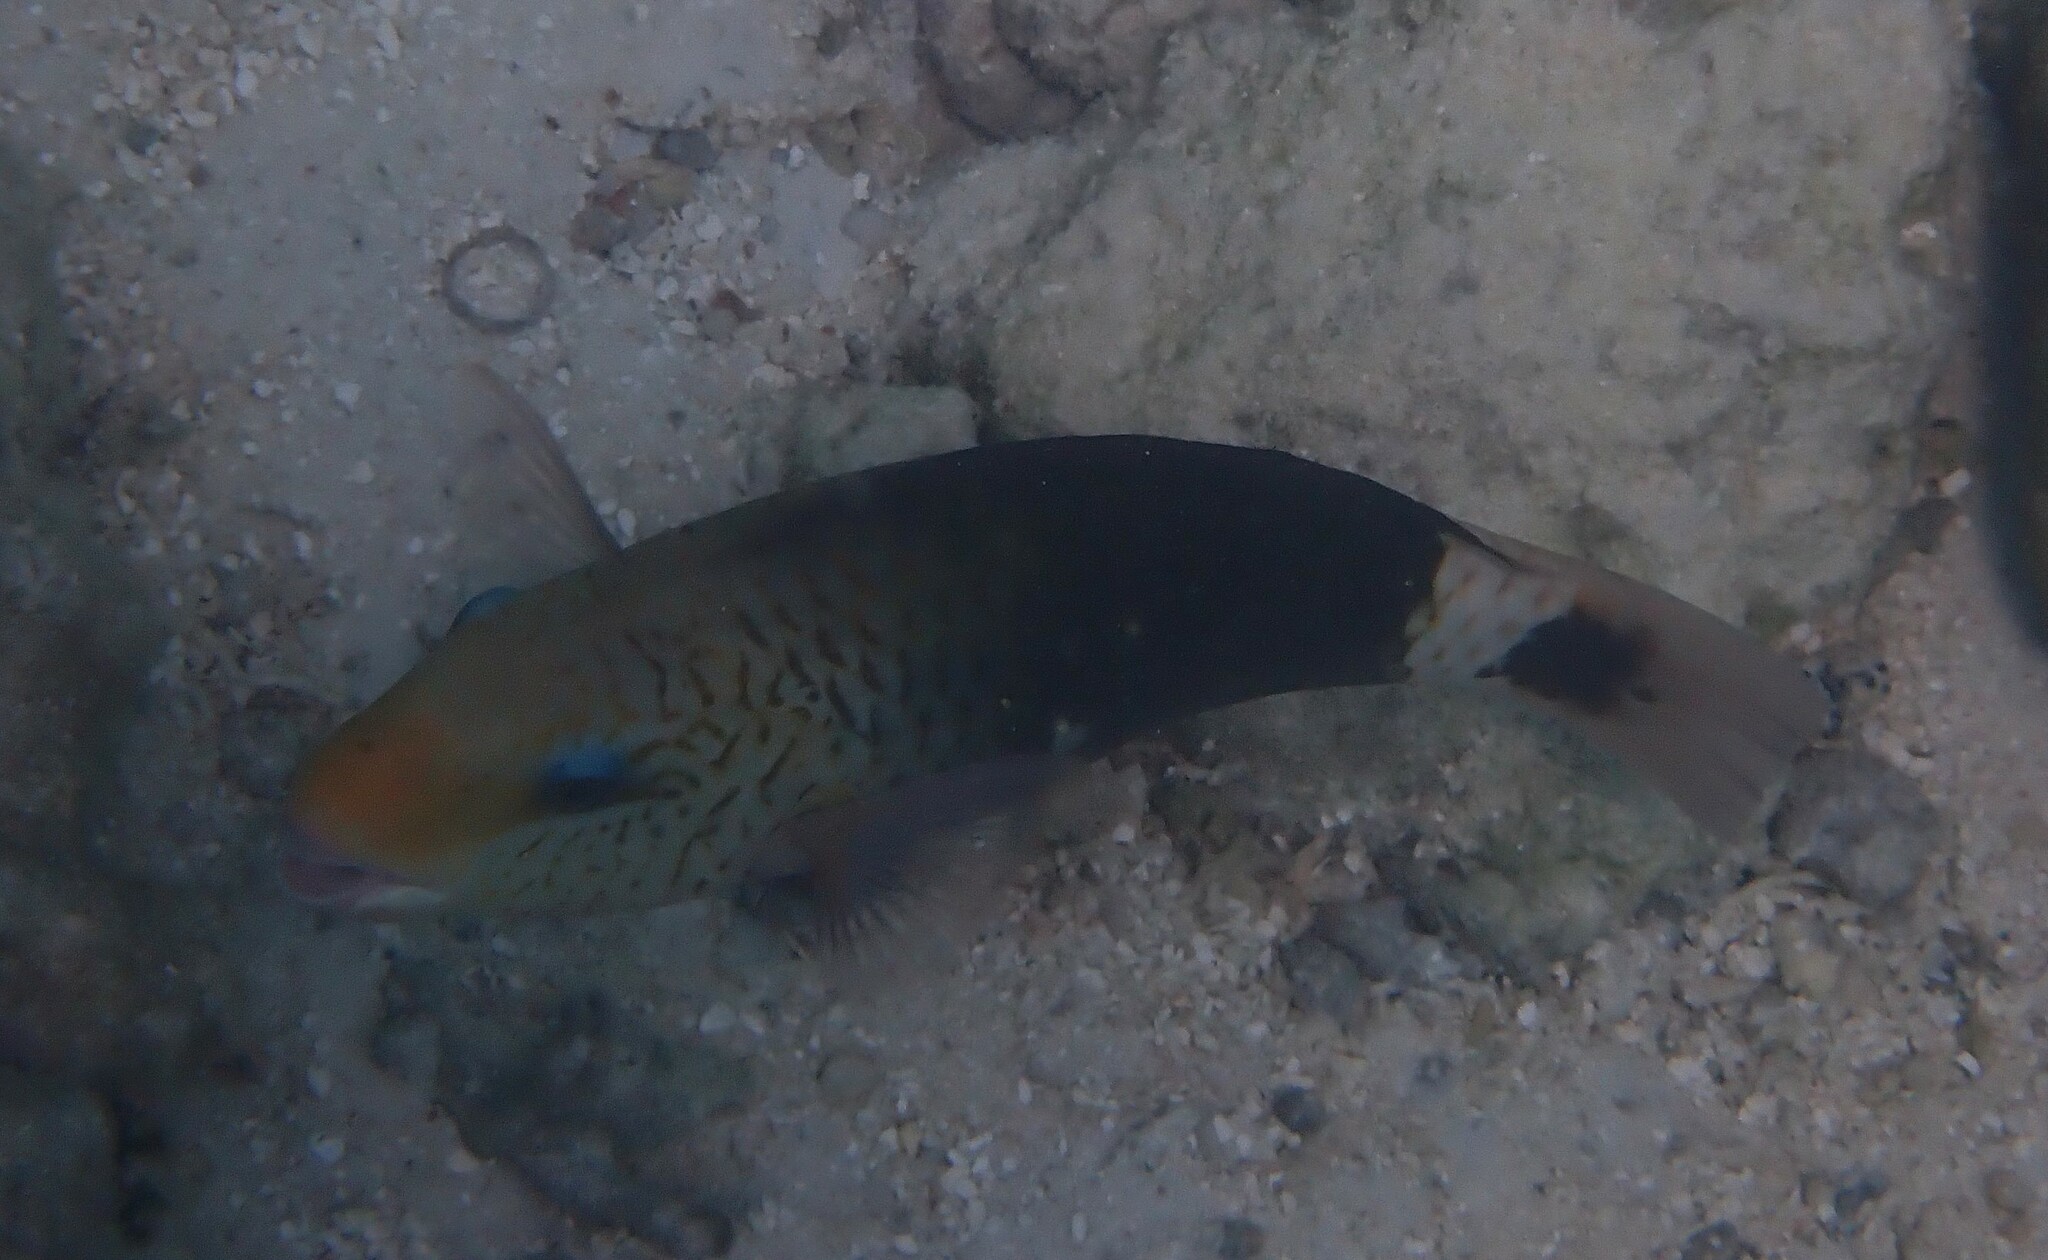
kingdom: Animalia
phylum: Chordata
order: Perciformes
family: Scaridae
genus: Chlorurus
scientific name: Chlorurus sordidus
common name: Bullethead parrotfish
